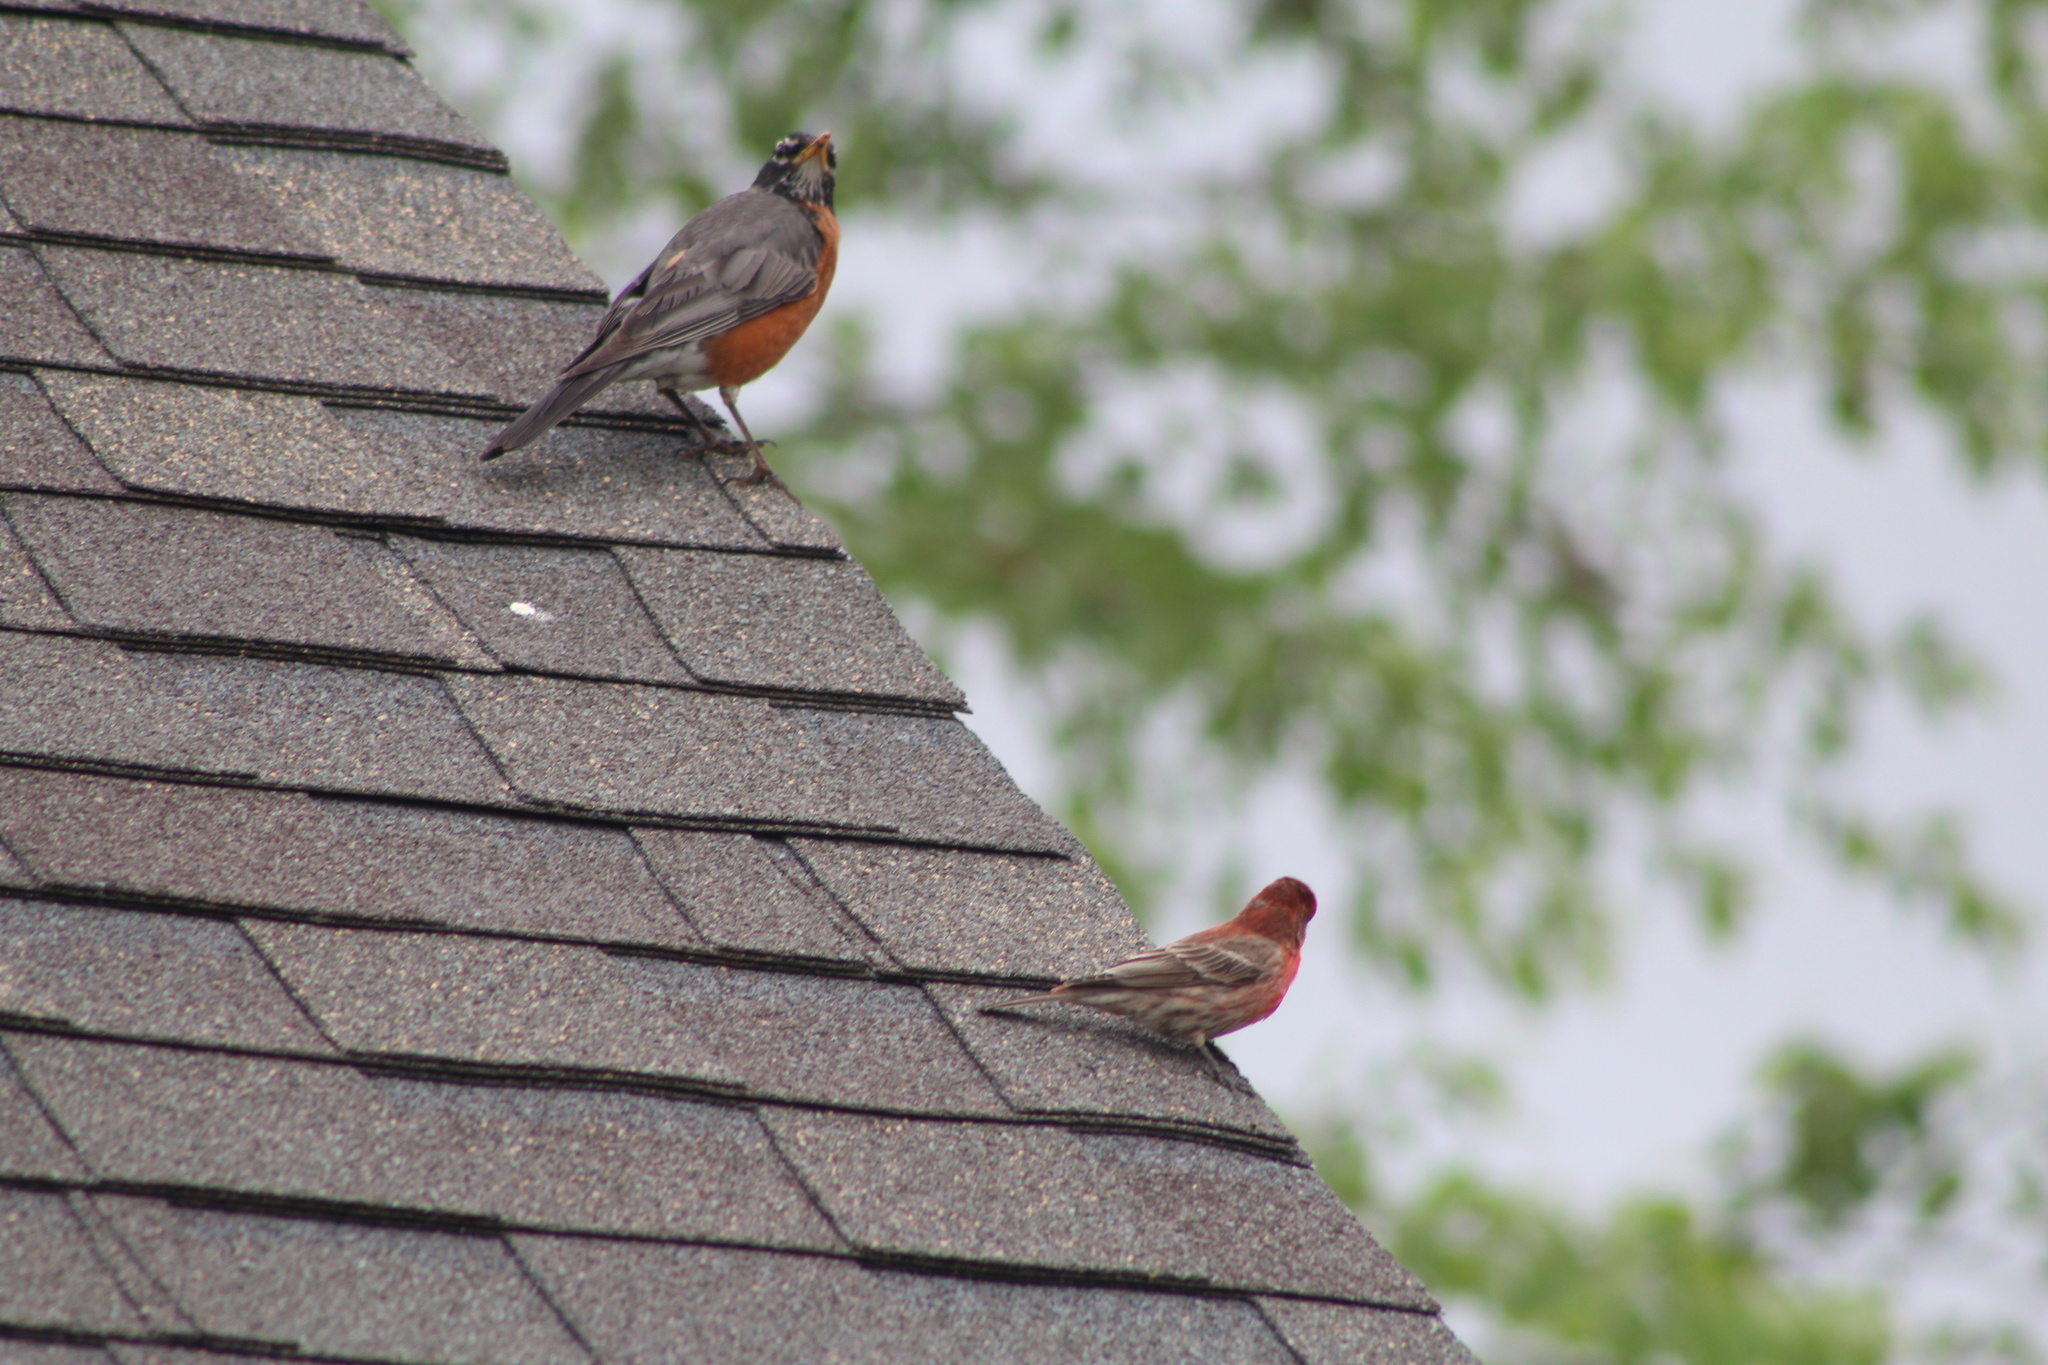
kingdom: Animalia
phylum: Chordata
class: Aves
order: Passeriformes
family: Fringillidae
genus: Haemorhous
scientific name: Haemorhous mexicanus
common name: House finch
